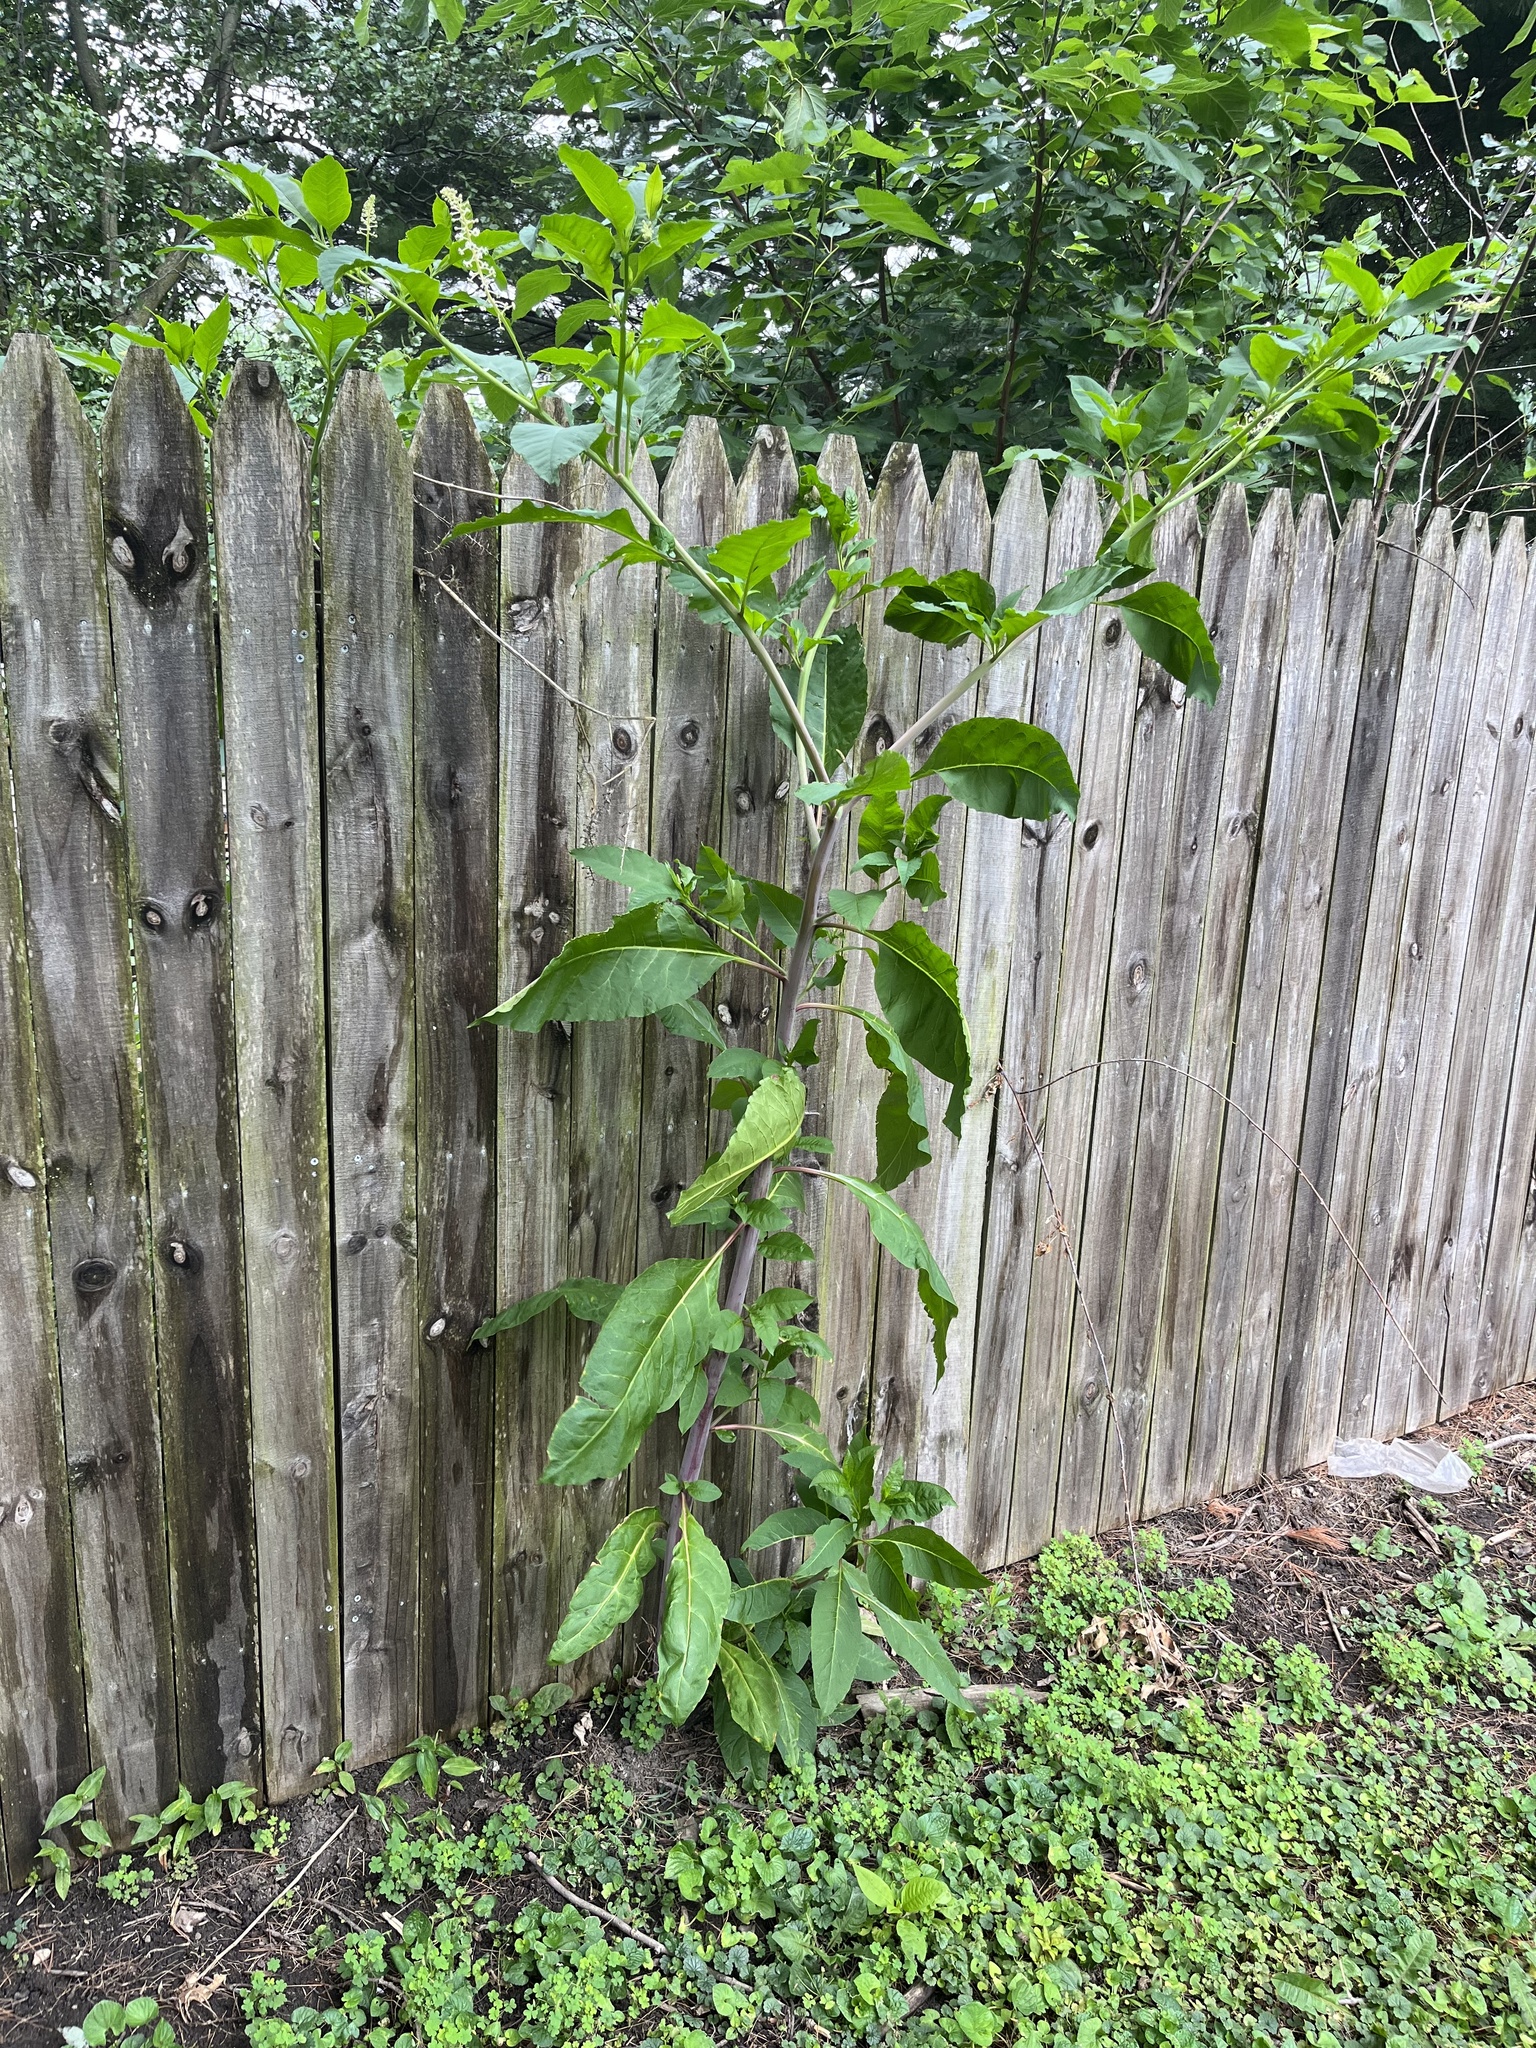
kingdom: Plantae
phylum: Tracheophyta
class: Magnoliopsida
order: Caryophyllales
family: Phytolaccaceae
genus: Phytolacca
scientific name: Phytolacca americana
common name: American pokeweed
